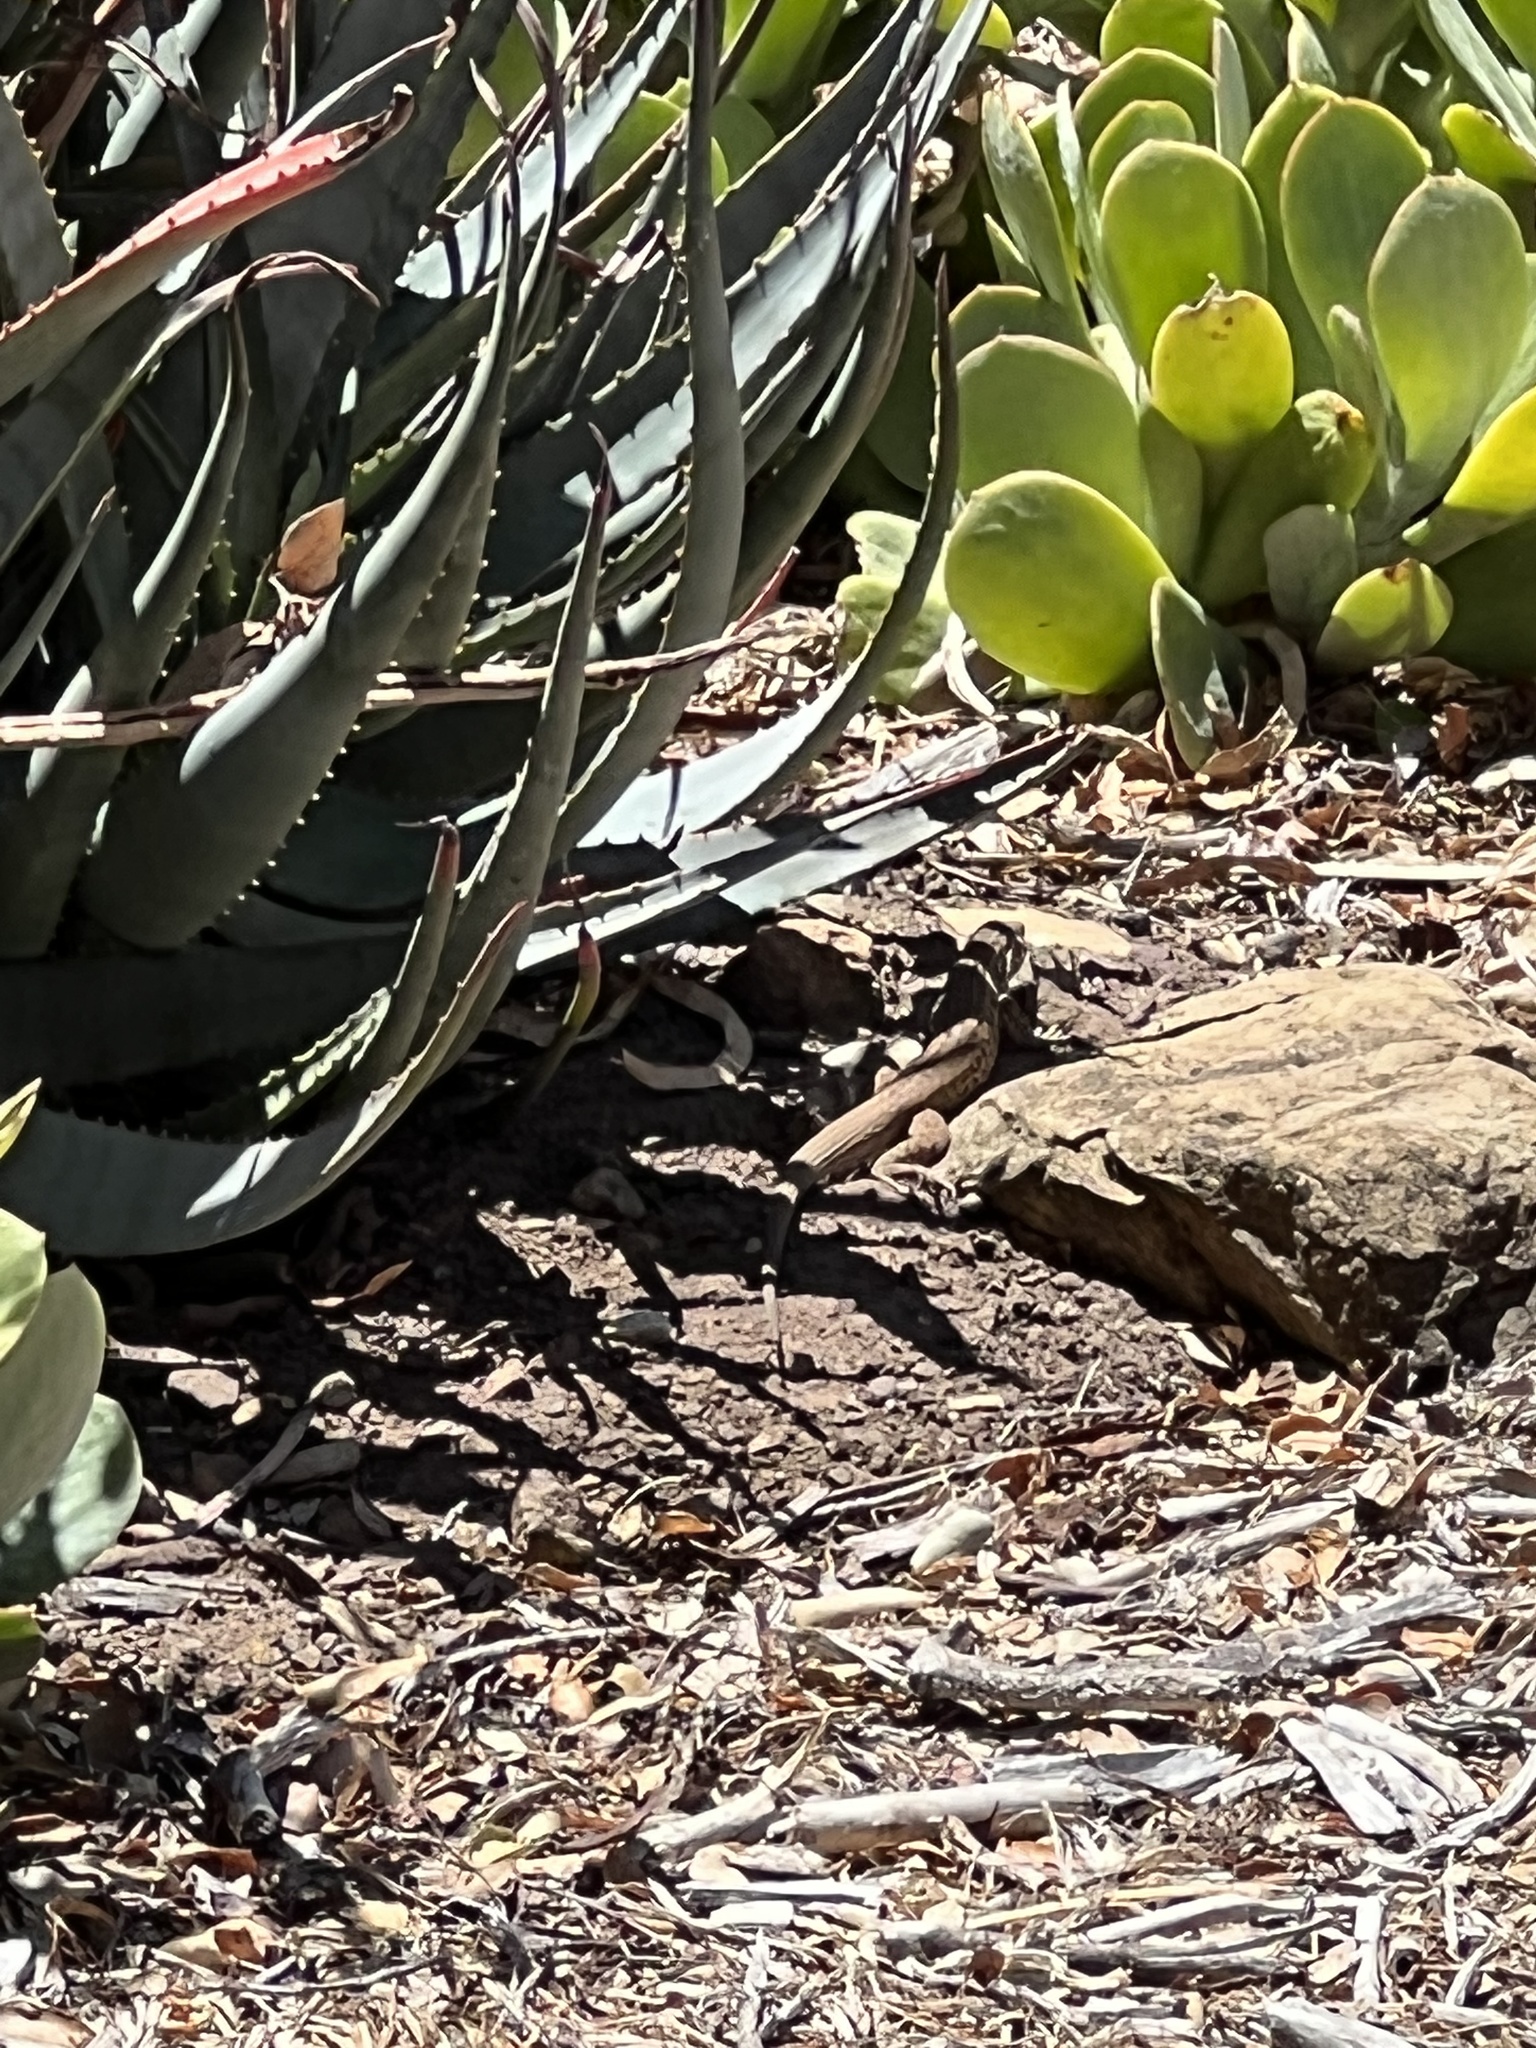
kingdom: Animalia
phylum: Chordata
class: Squamata
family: Teiidae
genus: Aspidoscelis
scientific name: Aspidoscelis tigris
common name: Tiger whiptail
